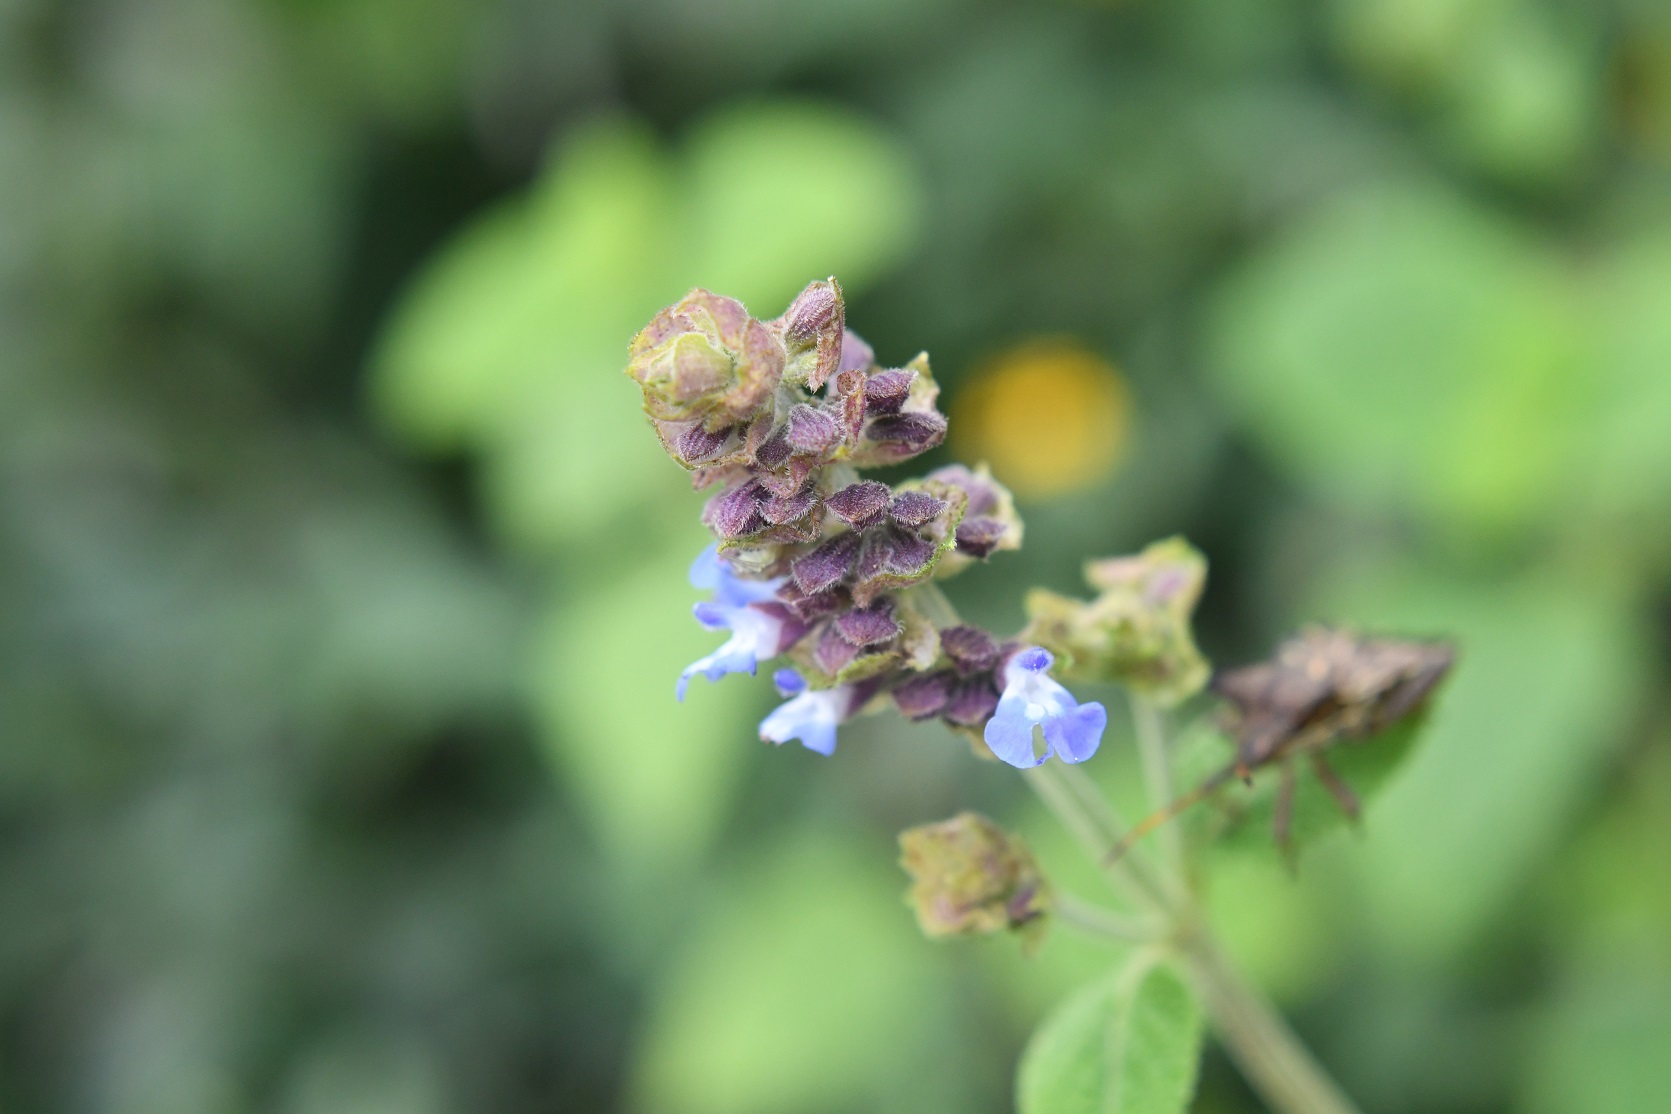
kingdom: Plantae
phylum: Tracheophyta
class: Magnoliopsida
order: Lamiales
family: Lamiaceae
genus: Salvia
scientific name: Salvia mocinoi
